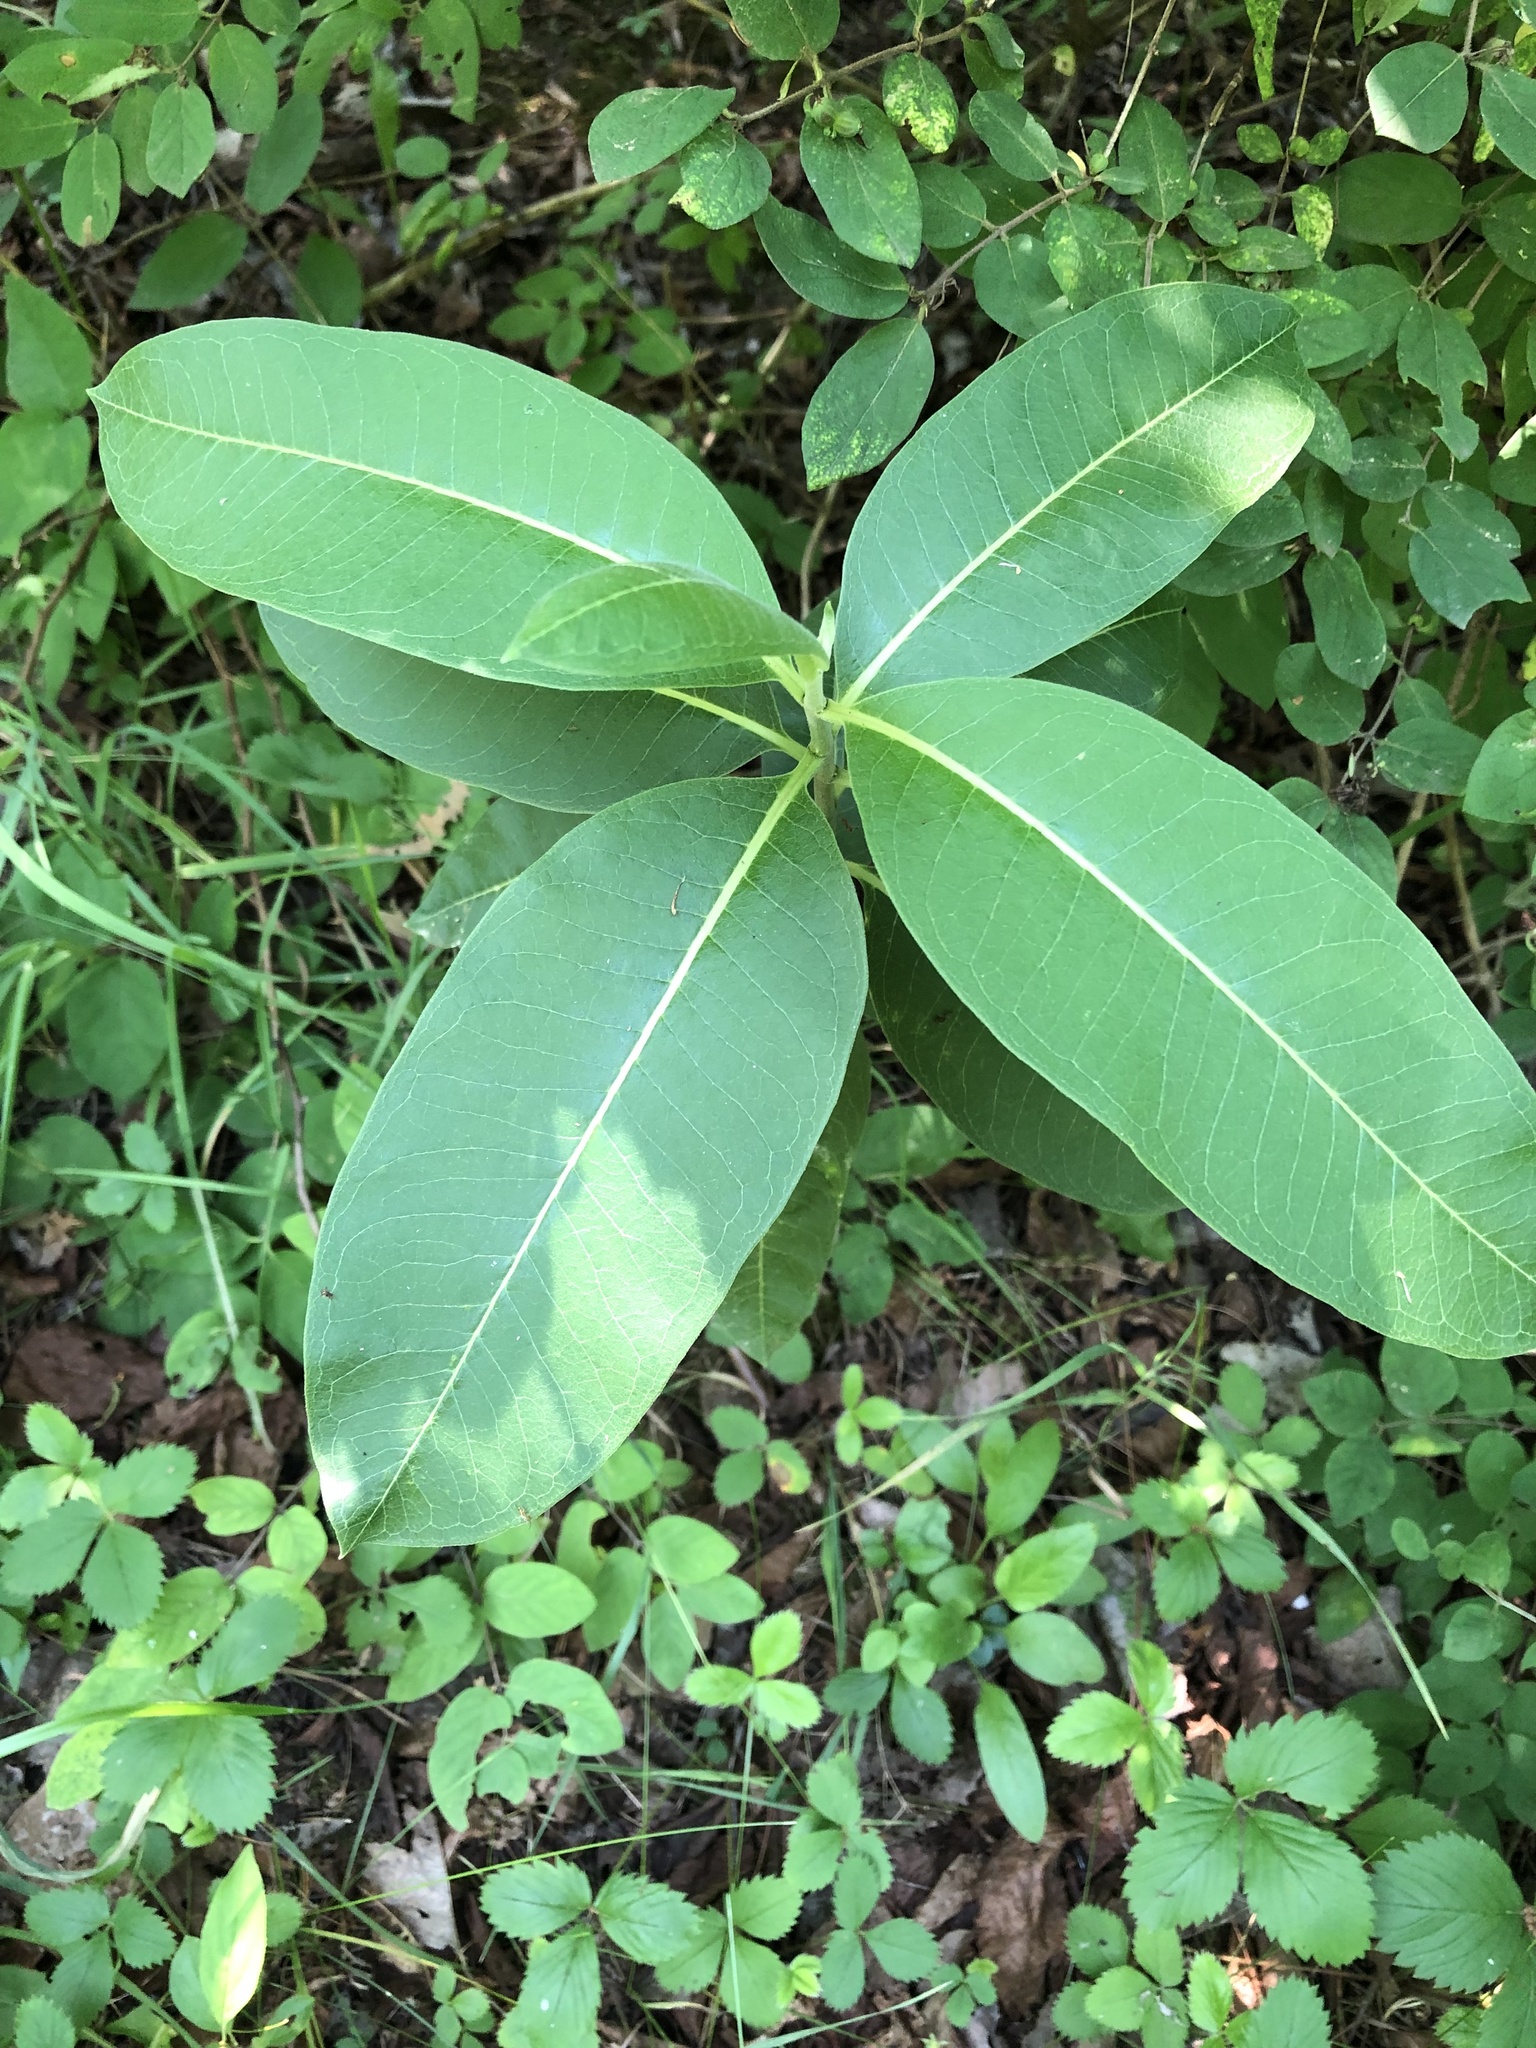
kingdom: Plantae
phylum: Tracheophyta
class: Magnoliopsida
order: Gentianales
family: Apocynaceae
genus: Asclepias
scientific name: Asclepias syriaca
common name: Common milkweed
